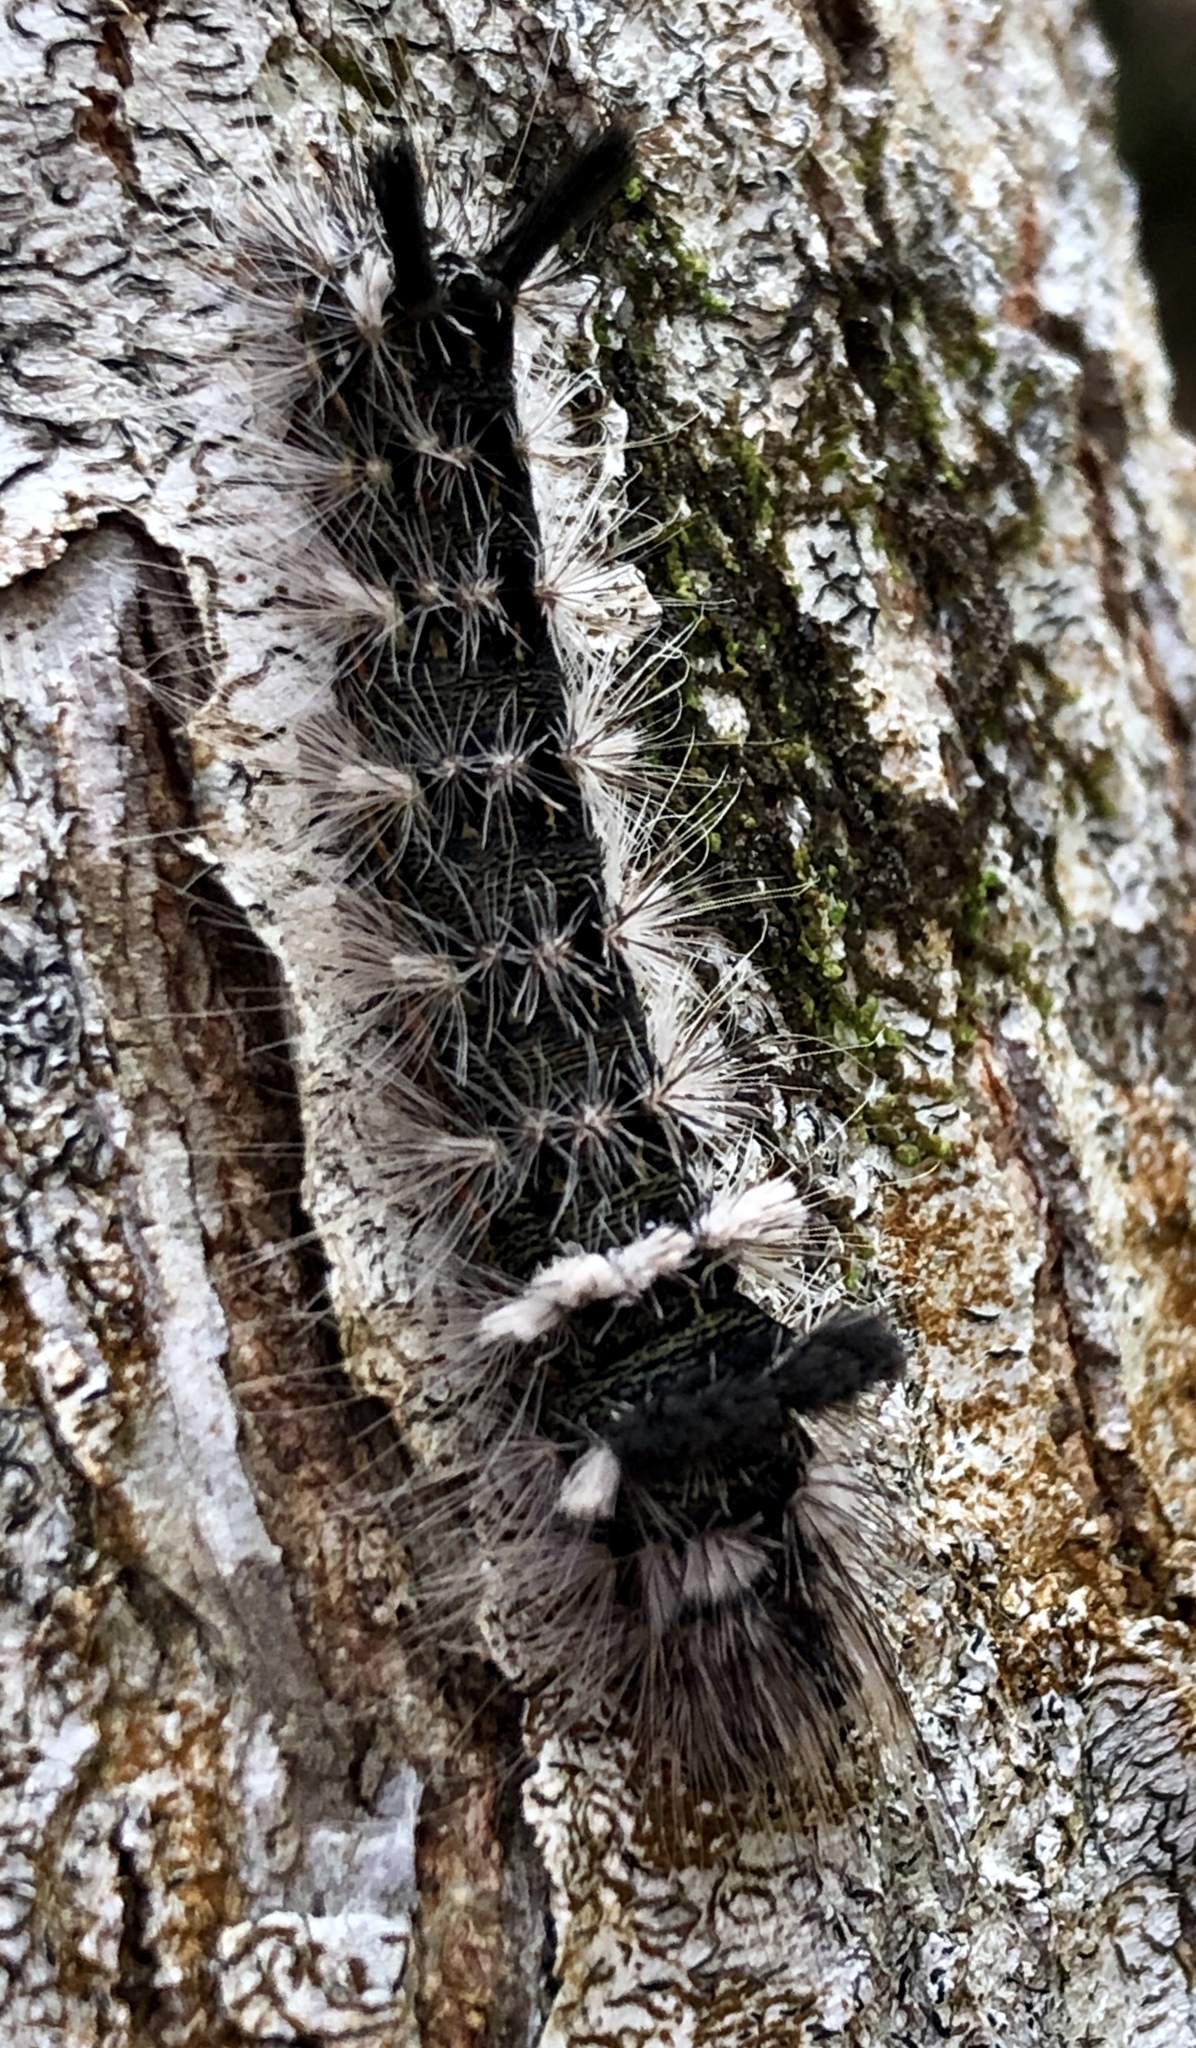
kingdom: Animalia
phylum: Arthropoda
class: Insecta
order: Lepidoptera
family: Noctuidae
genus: Acronicta
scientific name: Acronicta impleta
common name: Powdered dagger
